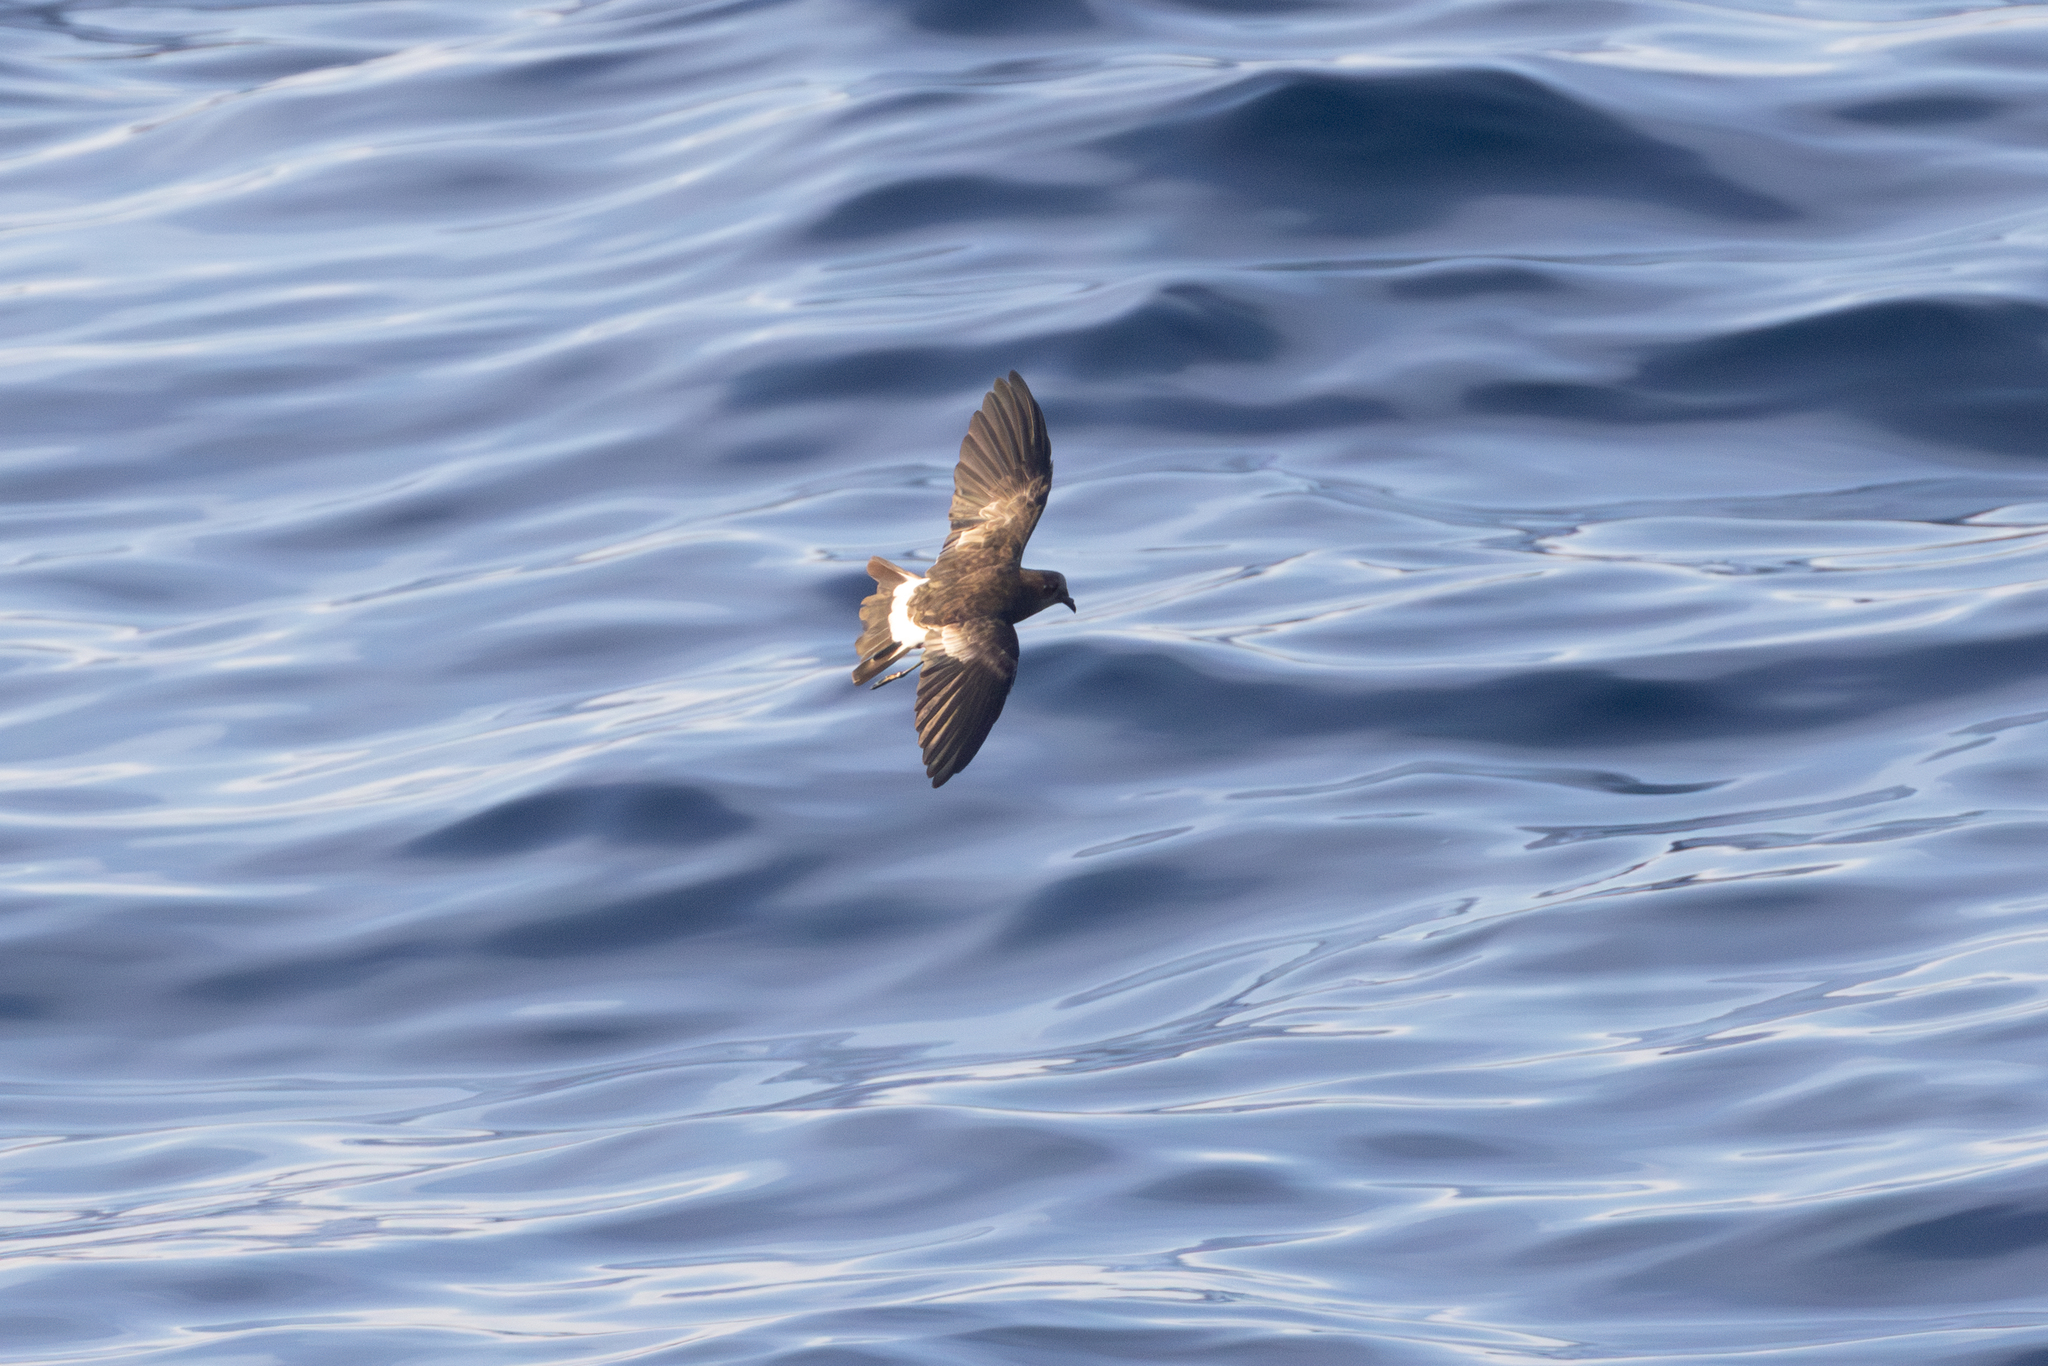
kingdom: Animalia
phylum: Chordata
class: Aves
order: Procellariiformes
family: Hydrobatidae
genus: Oceanites
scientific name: Oceanites oceanicus
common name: Wilson's storm petrel
